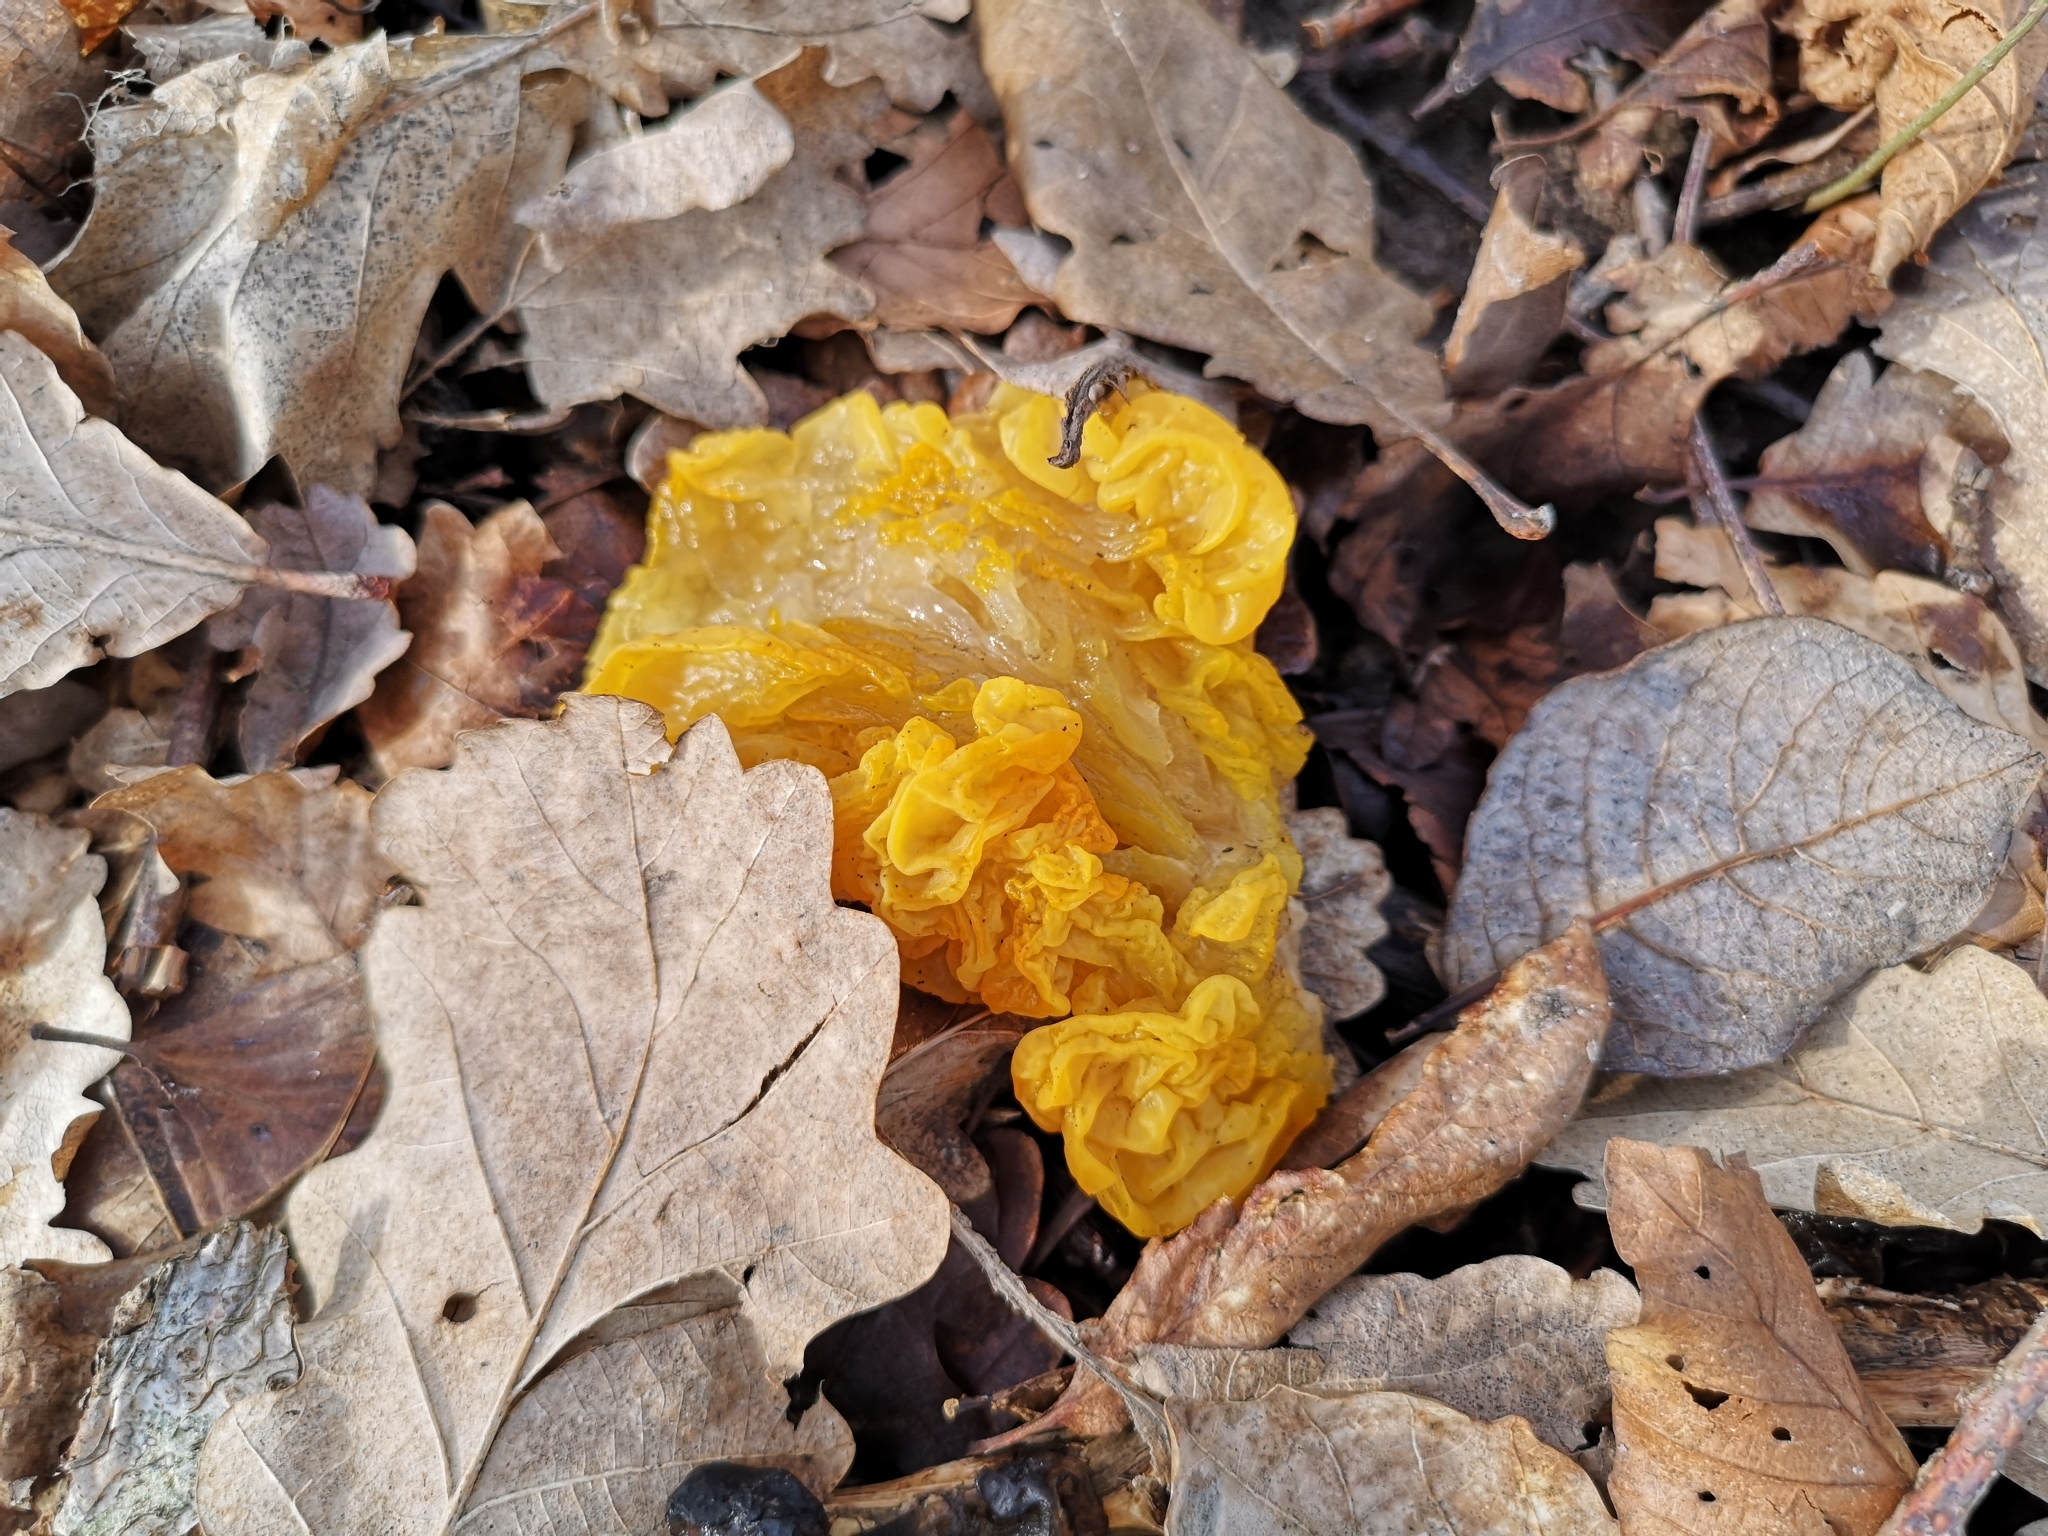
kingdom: Fungi
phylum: Basidiomycota
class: Tremellomycetes
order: Tremellales
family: Tremellaceae
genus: Tremella
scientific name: Tremella mesenterica
